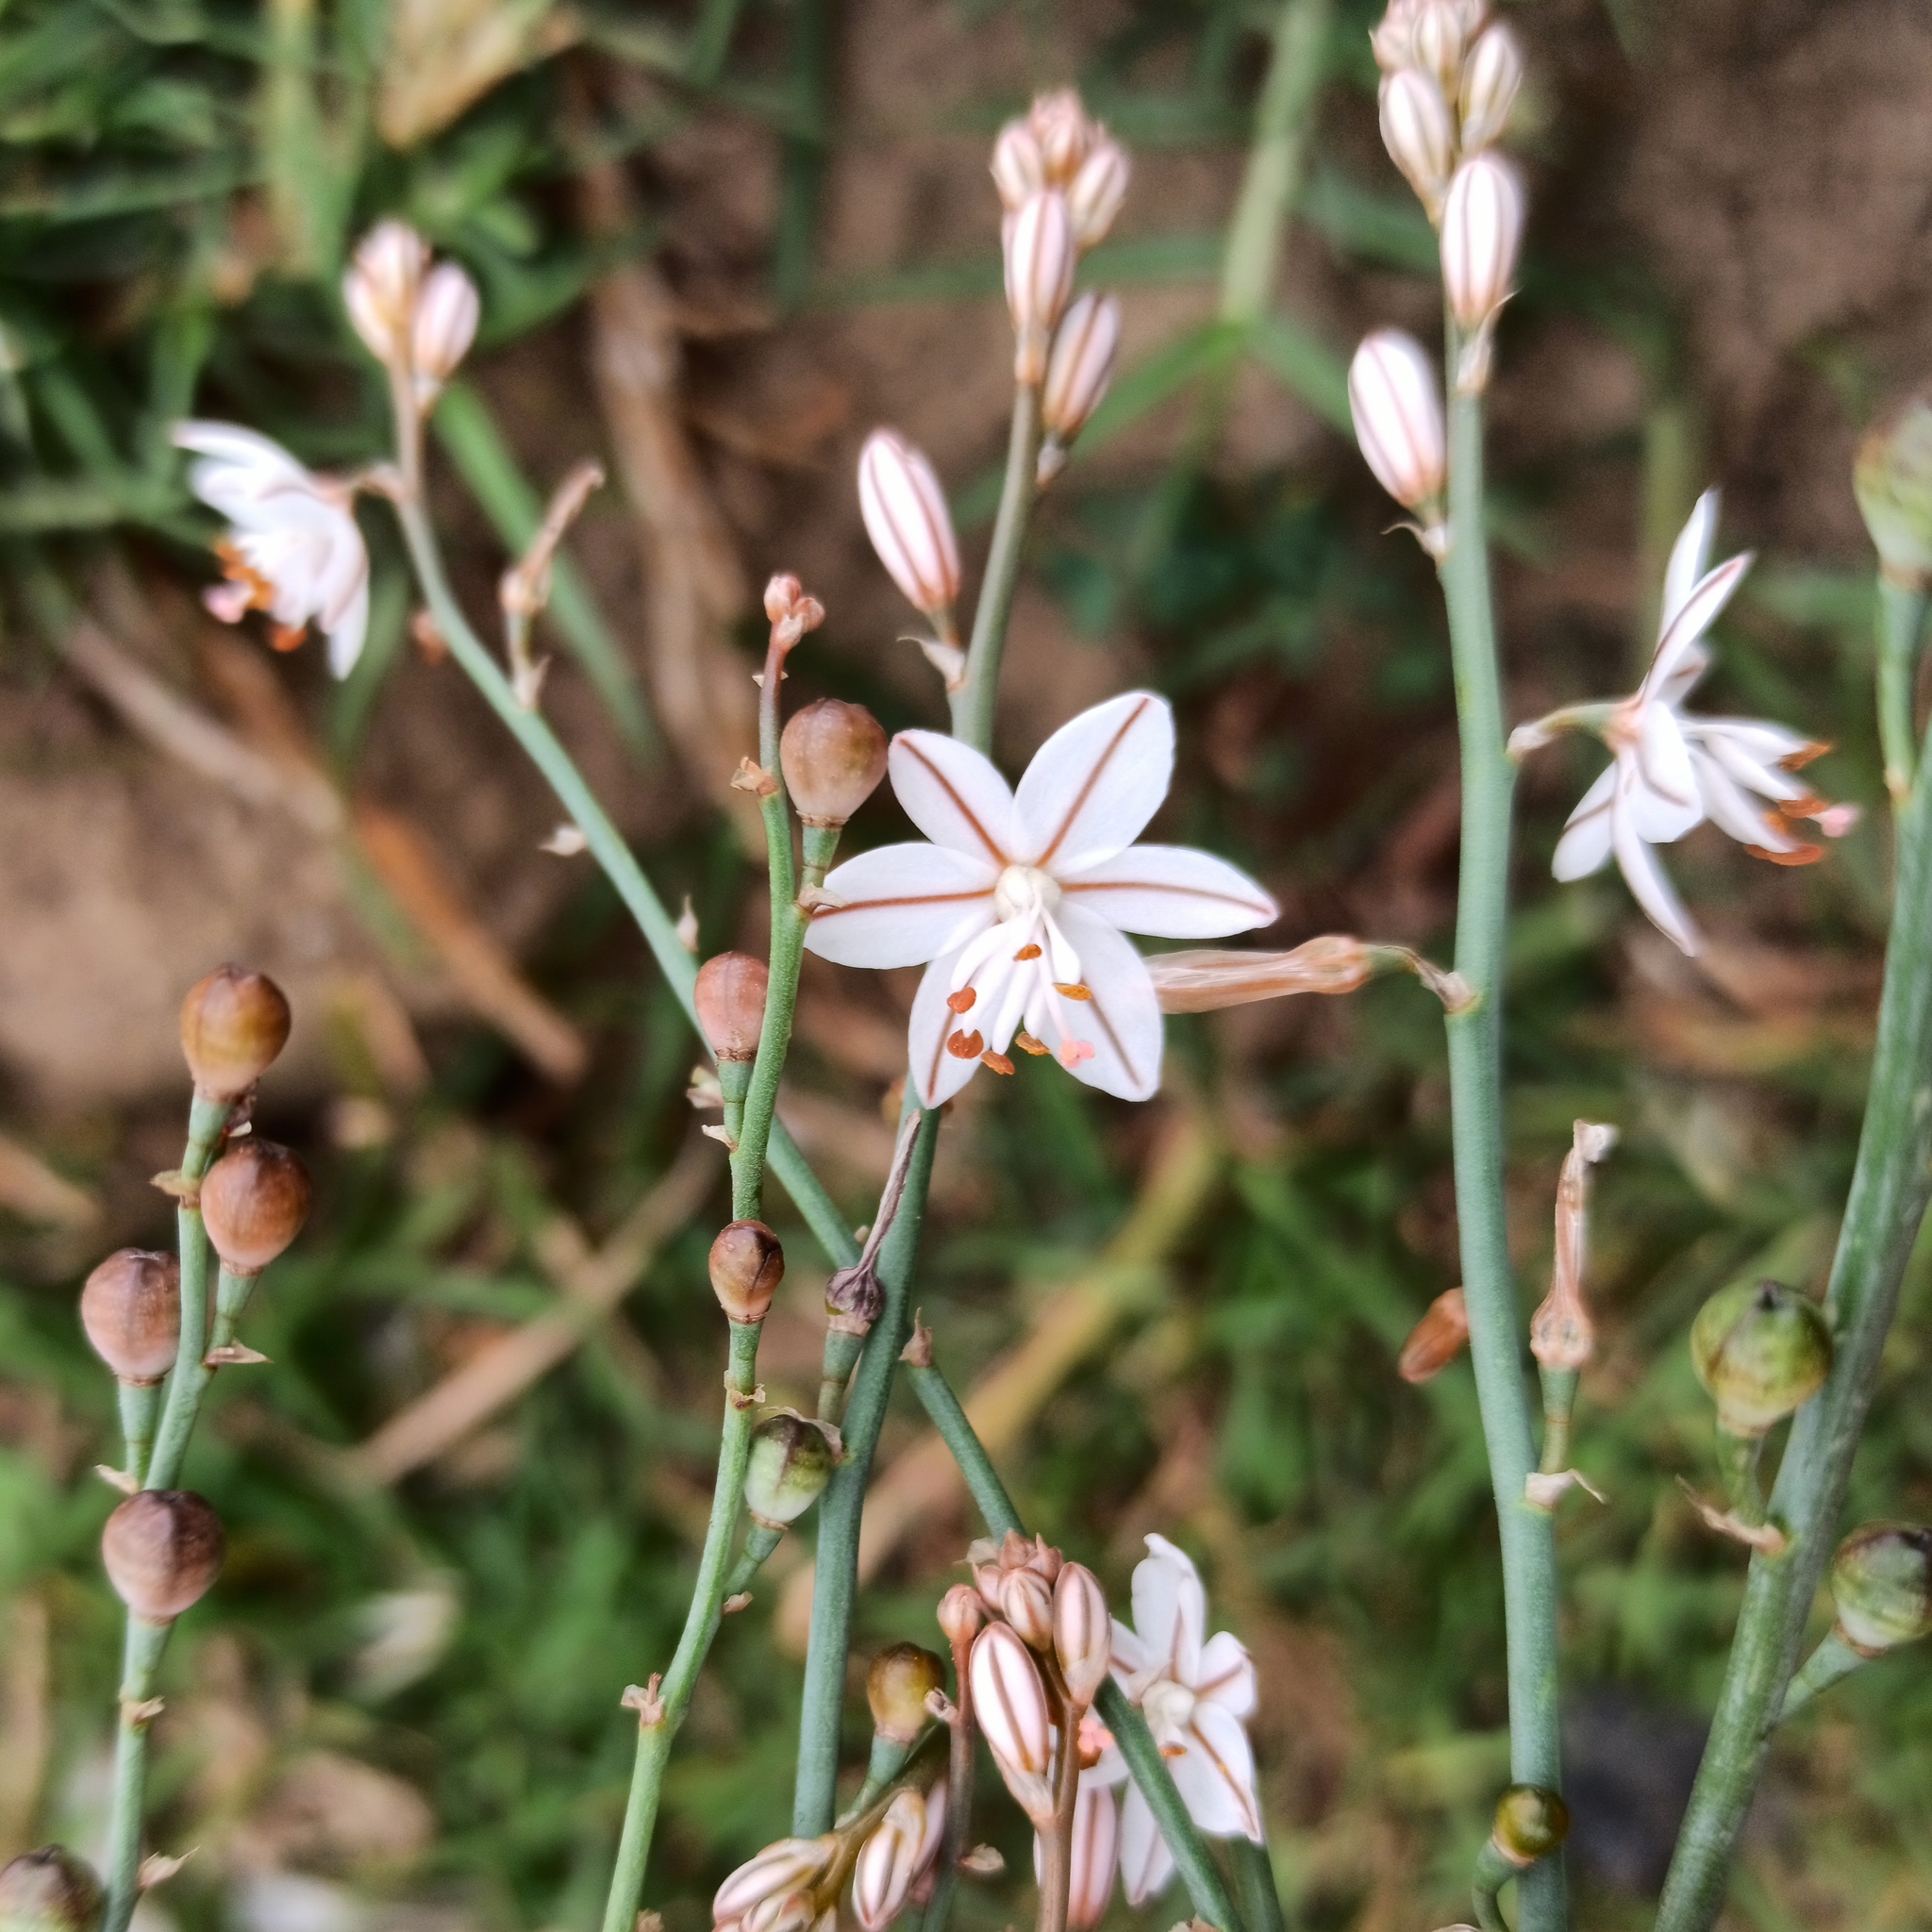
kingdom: Plantae
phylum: Tracheophyta
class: Liliopsida
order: Asparagales
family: Asphodelaceae
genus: Asphodelus
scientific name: Asphodelus fistulosus
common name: Onionweed
